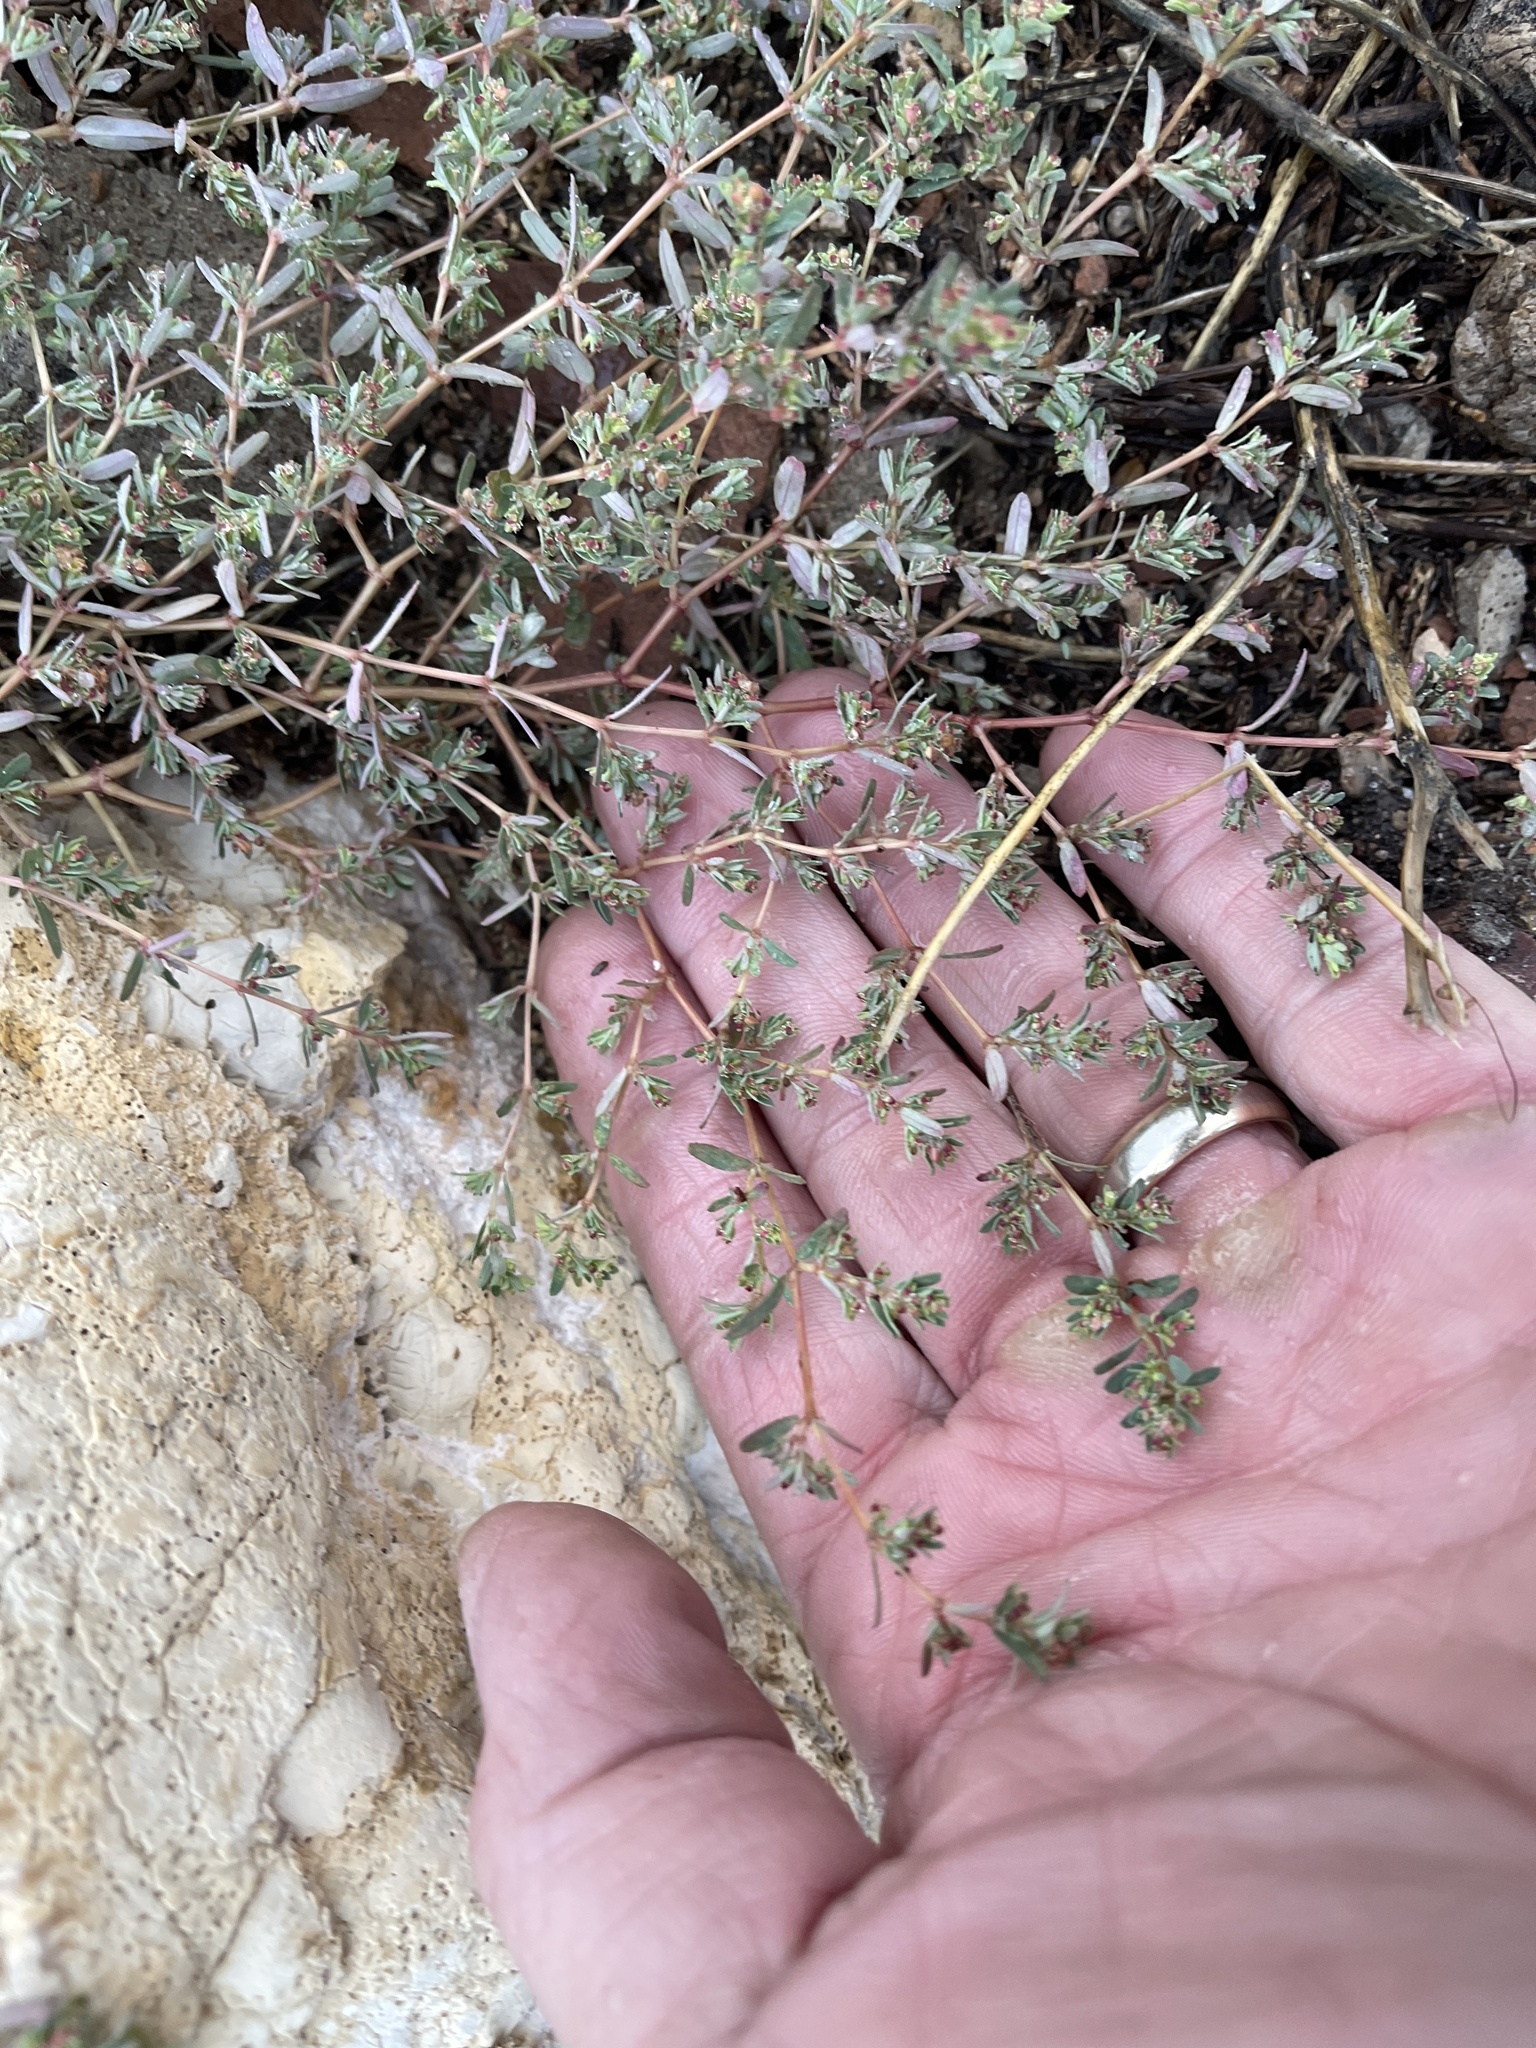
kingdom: Plantae
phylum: Tracheophyta
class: Magnoliopsida
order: Malpighiales
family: Euphorbiaceae
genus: Euphorbia
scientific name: Euphorbia serpillifolia
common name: Thyme-leaf spurge
